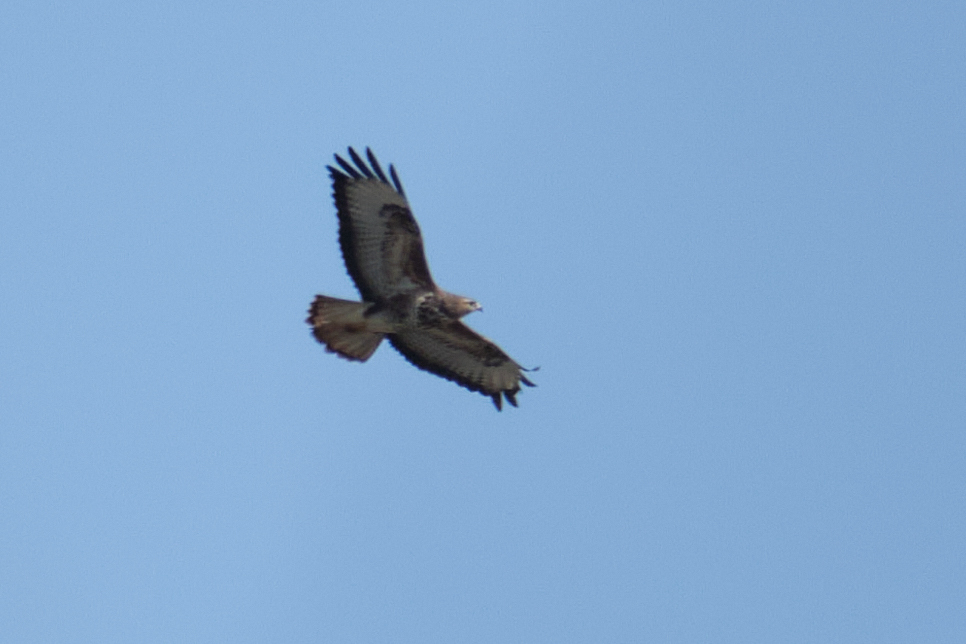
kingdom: Animalia
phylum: Chordata
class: Aves
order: Accipitriformes
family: Accipitridae
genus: Buteo
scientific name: Buteo buteo
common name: Common buzzard
